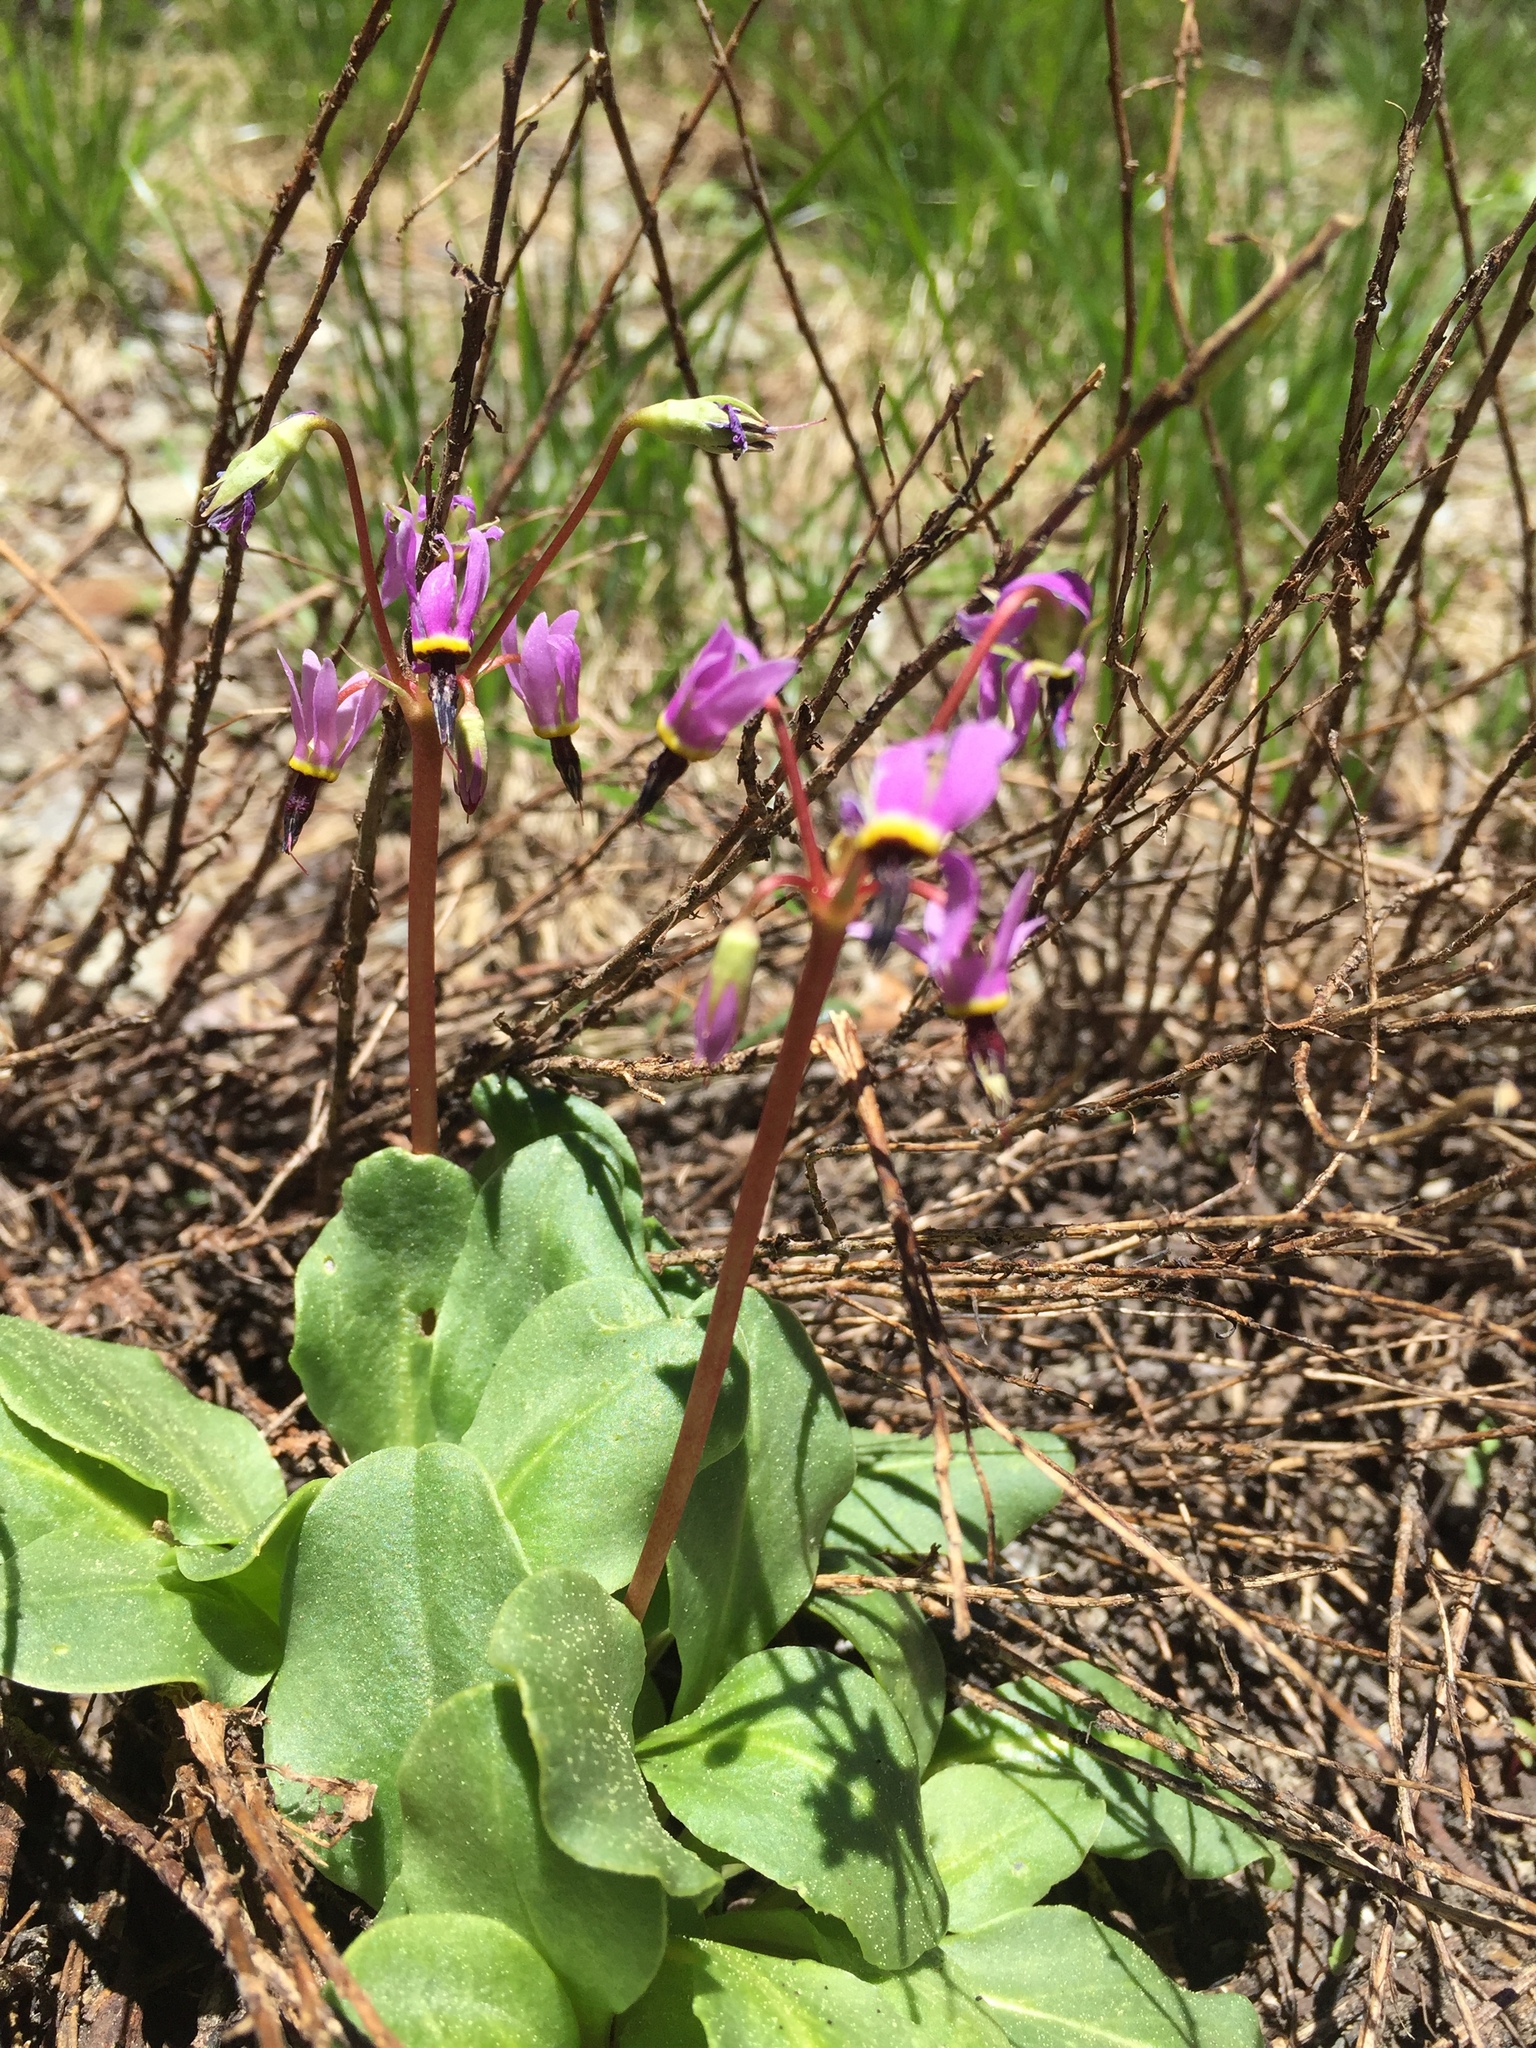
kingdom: Plantae
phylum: Tracheophyta
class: Magnoliopsida
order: Ericales
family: Primulaceae
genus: Dodecatheon
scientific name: Dodecatheon hendersonii
